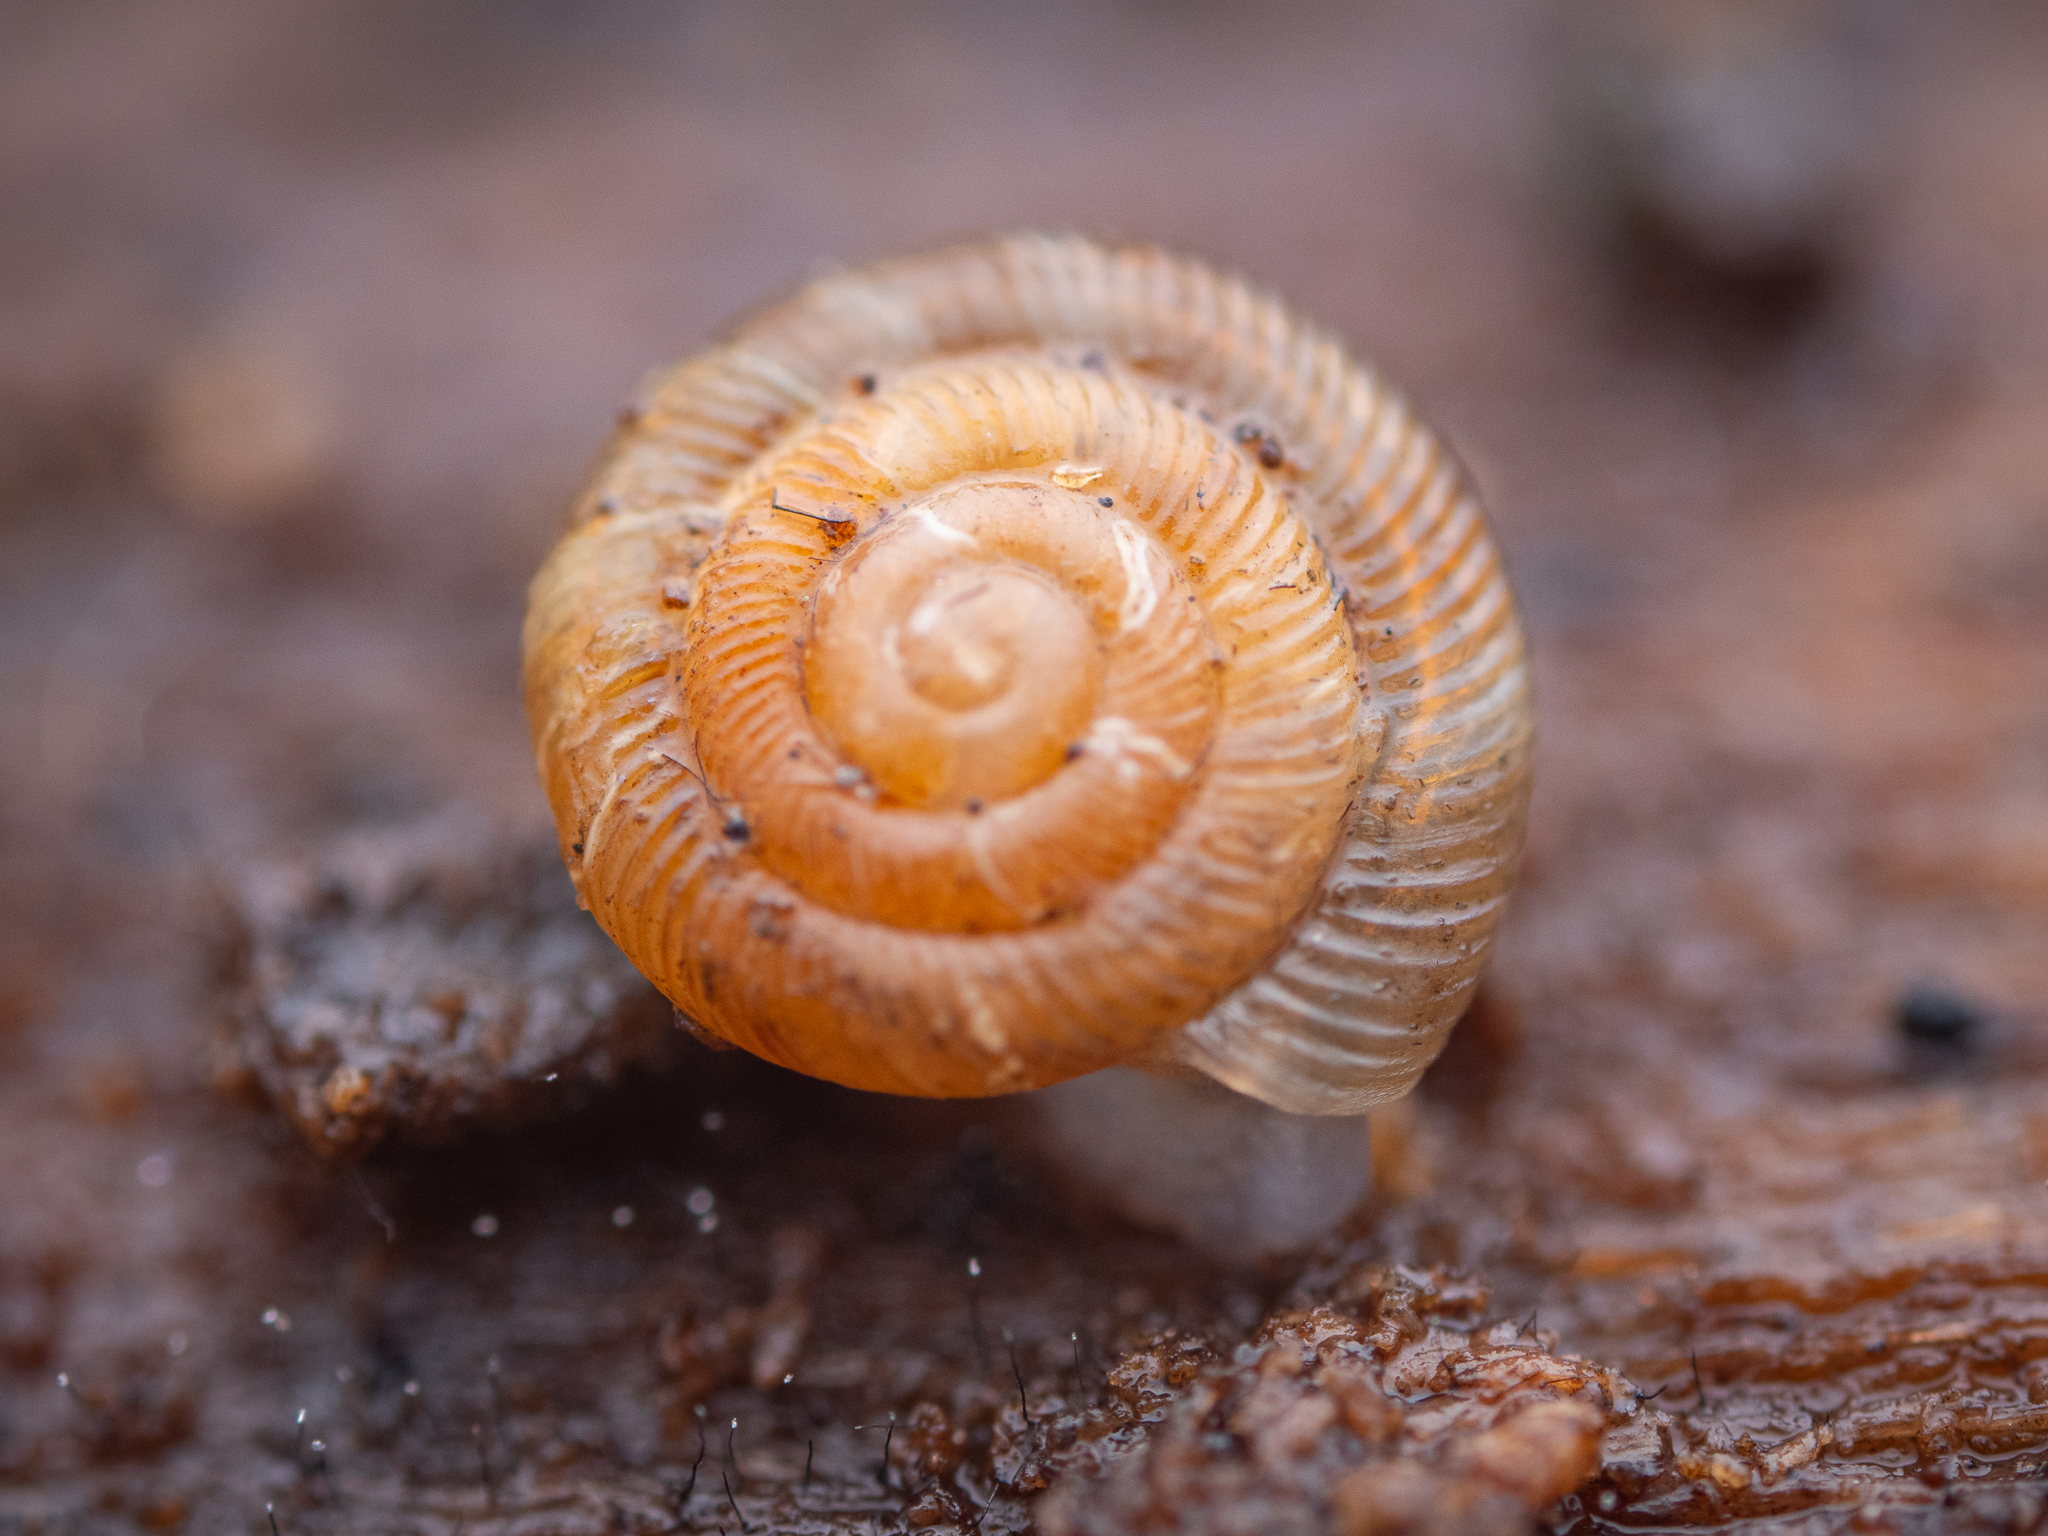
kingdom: Animalia
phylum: Mollusca
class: Gastropoda
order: Stylommatophora
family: Discidae
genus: Discus
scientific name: Discus rotundatus
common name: Rounded snail
